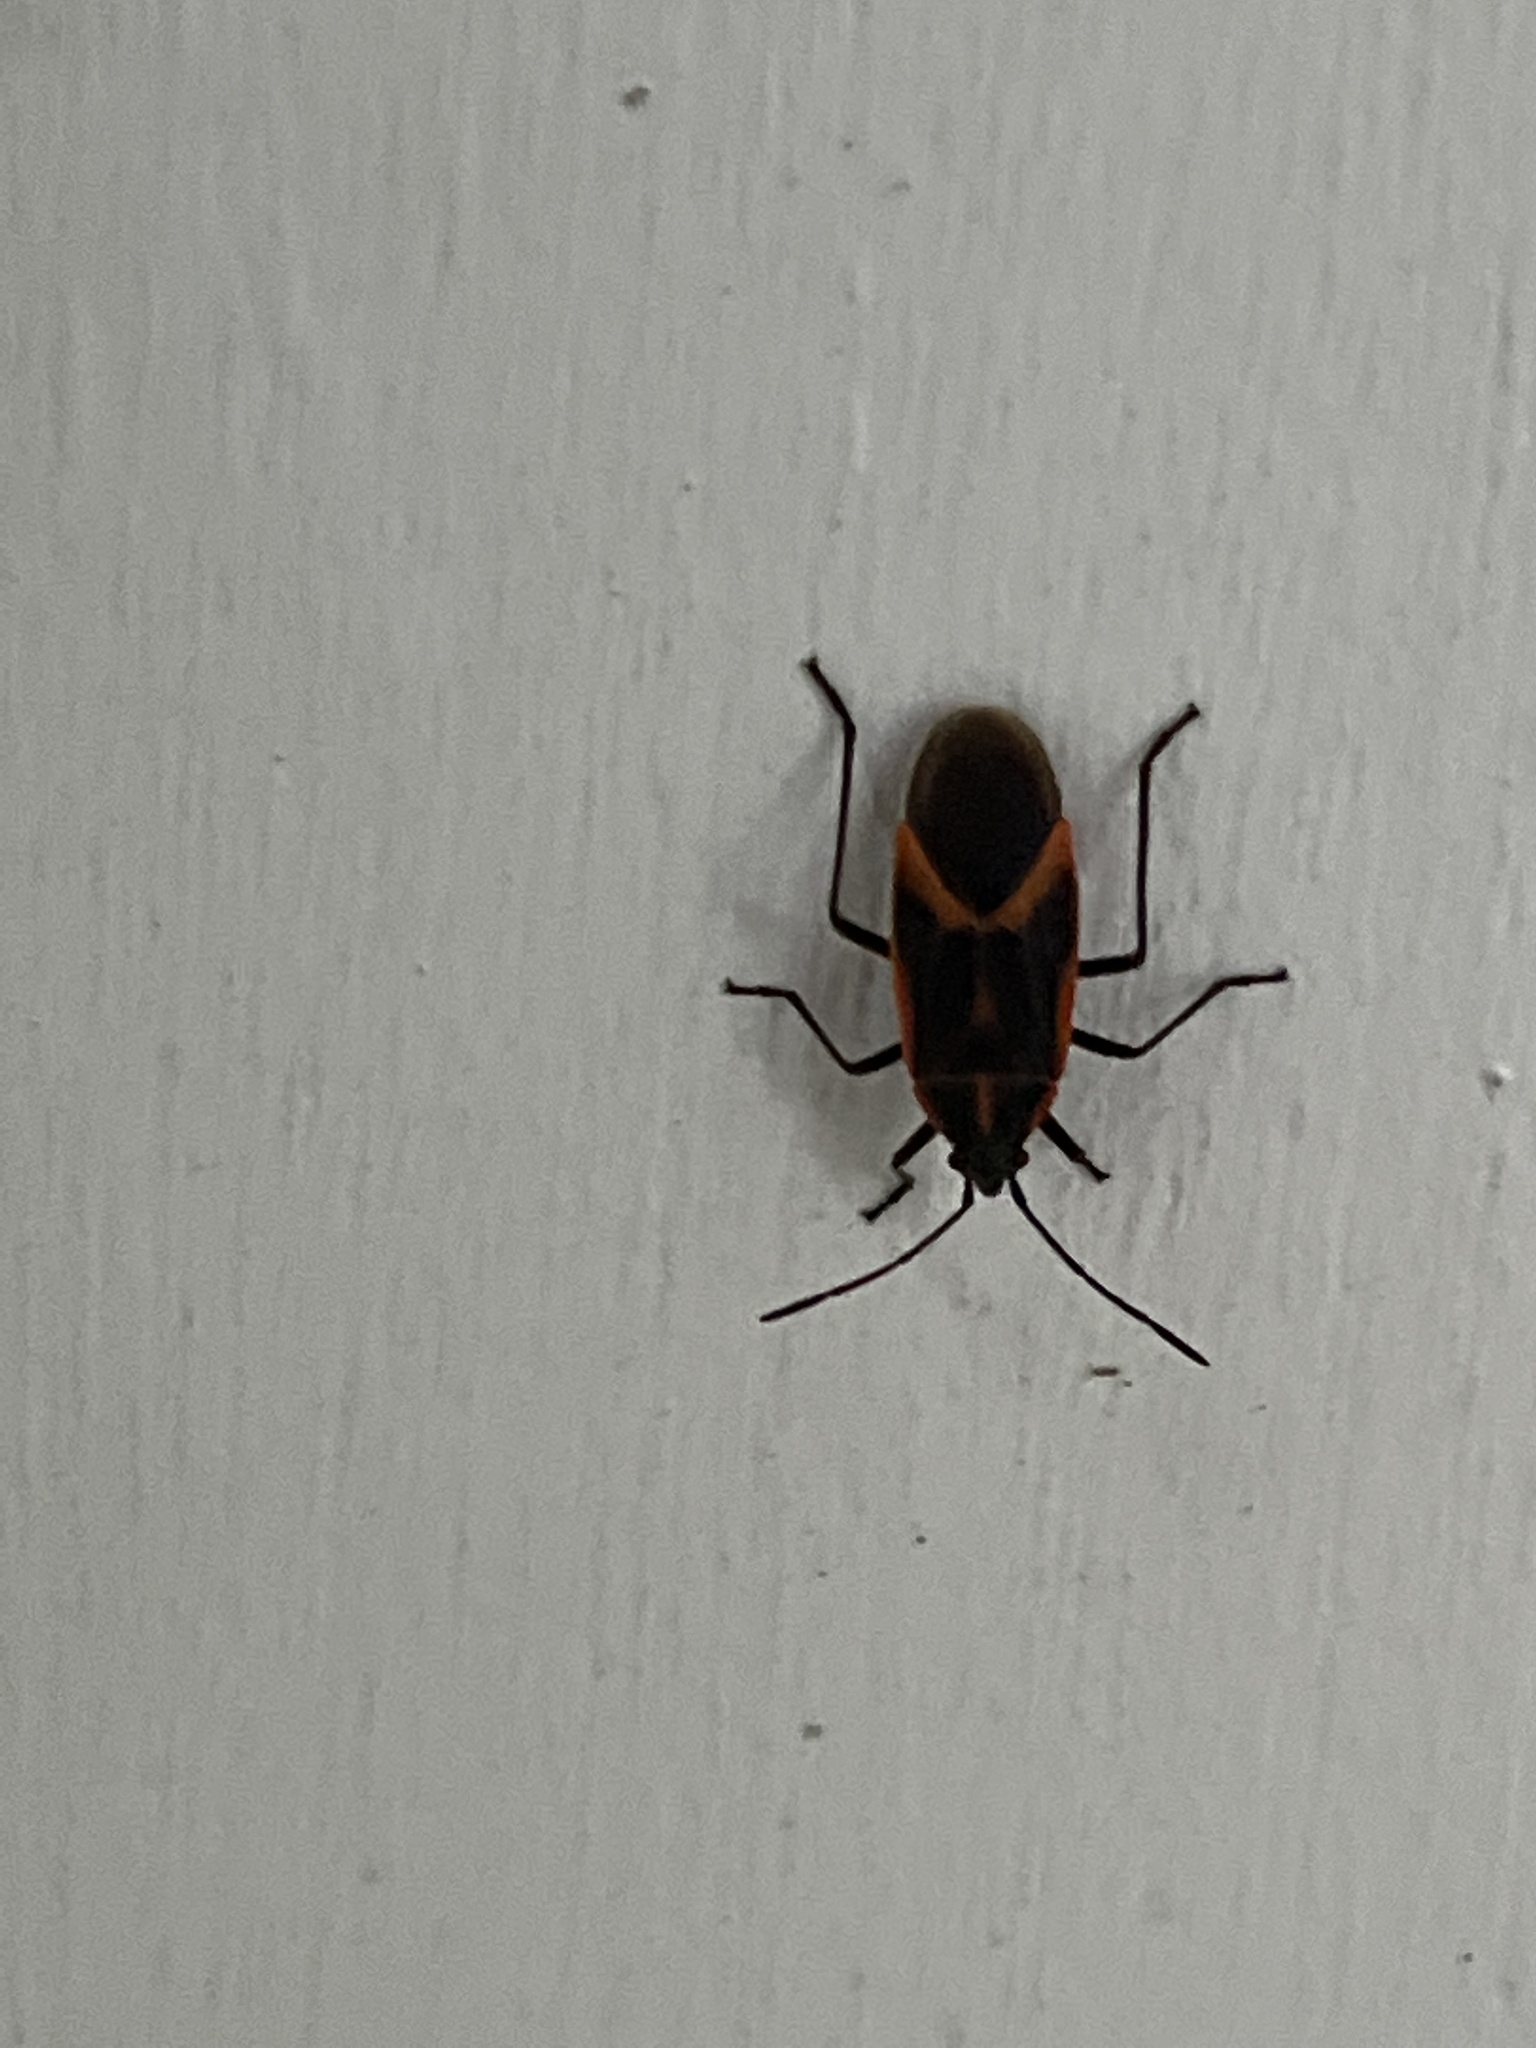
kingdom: Animalia
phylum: Arthropoda
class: Insecta
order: Hemiptera
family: Rhopalidae
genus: Boisea
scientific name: Boisea trivittata
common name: Boxelder bug
